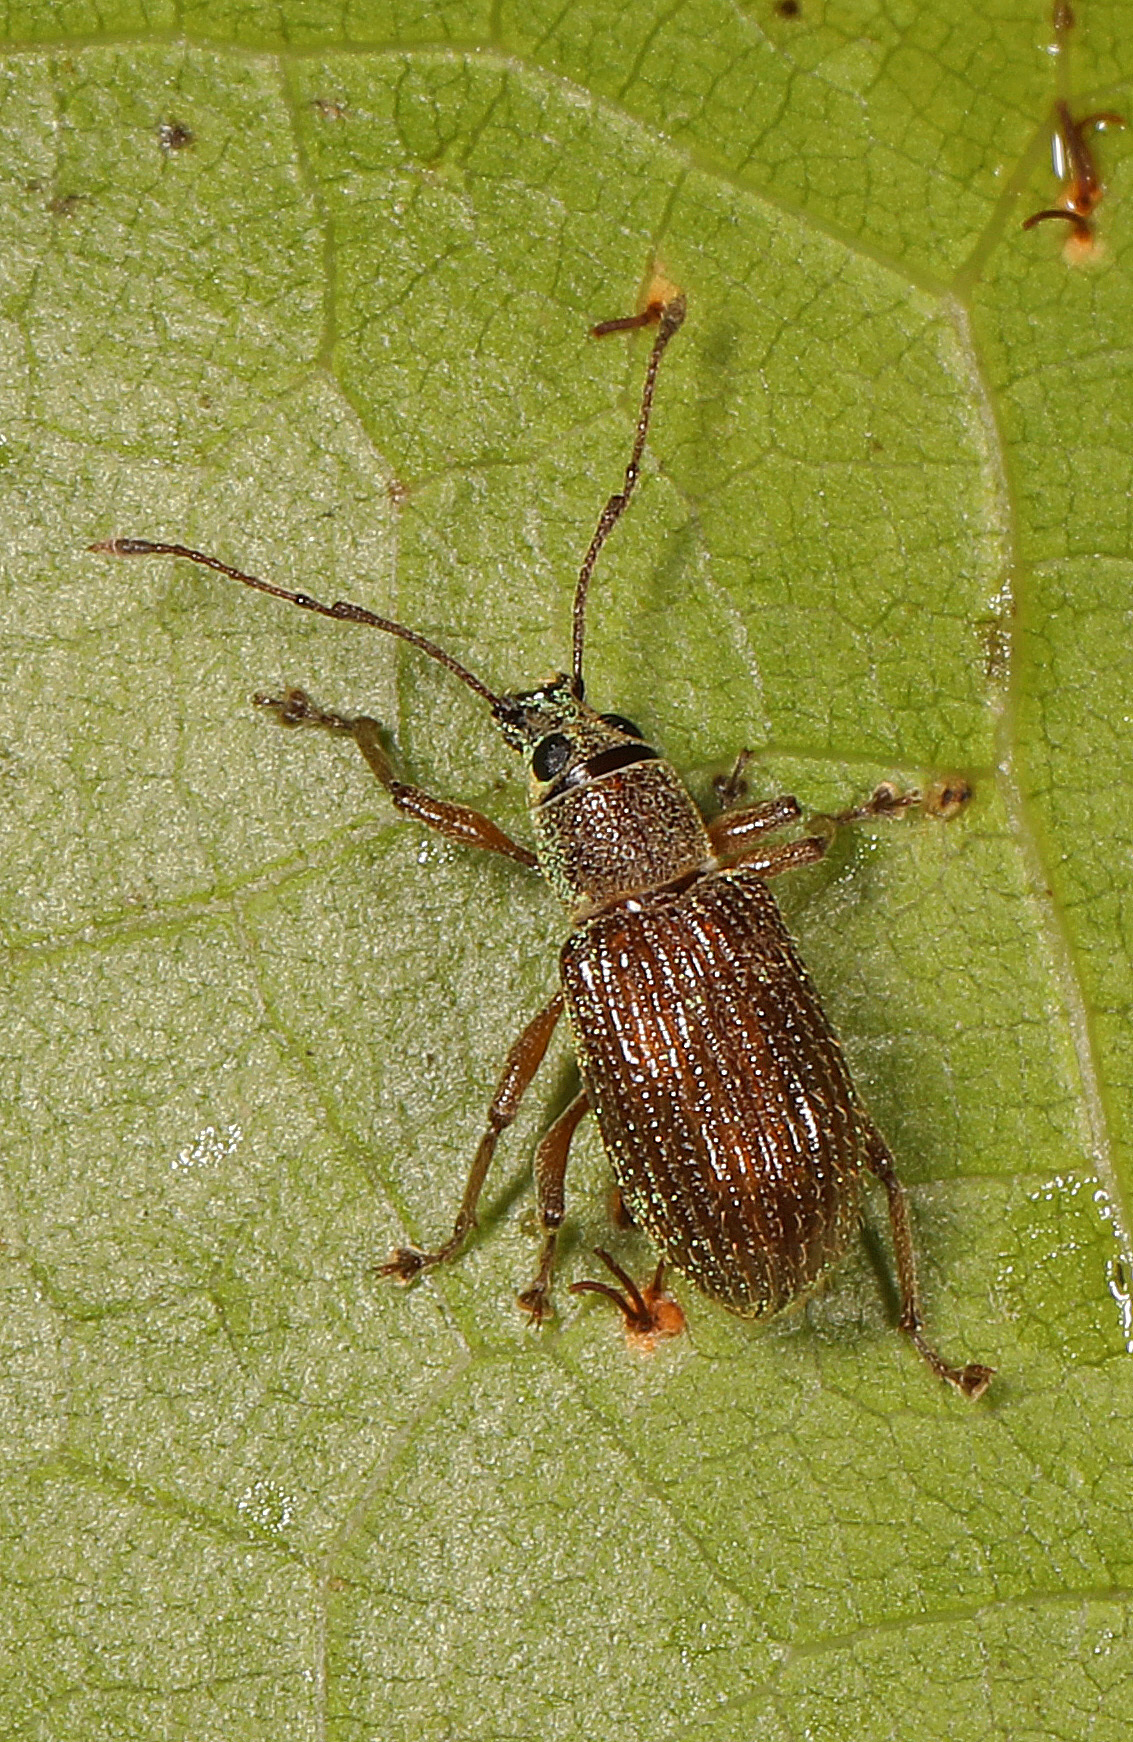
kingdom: Animalia
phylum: Arthropoda
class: Insecta
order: Coleoptera
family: Curculionidae
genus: Cyrtepistomus
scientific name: Cyrtepistomus castaneus
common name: Weevil
